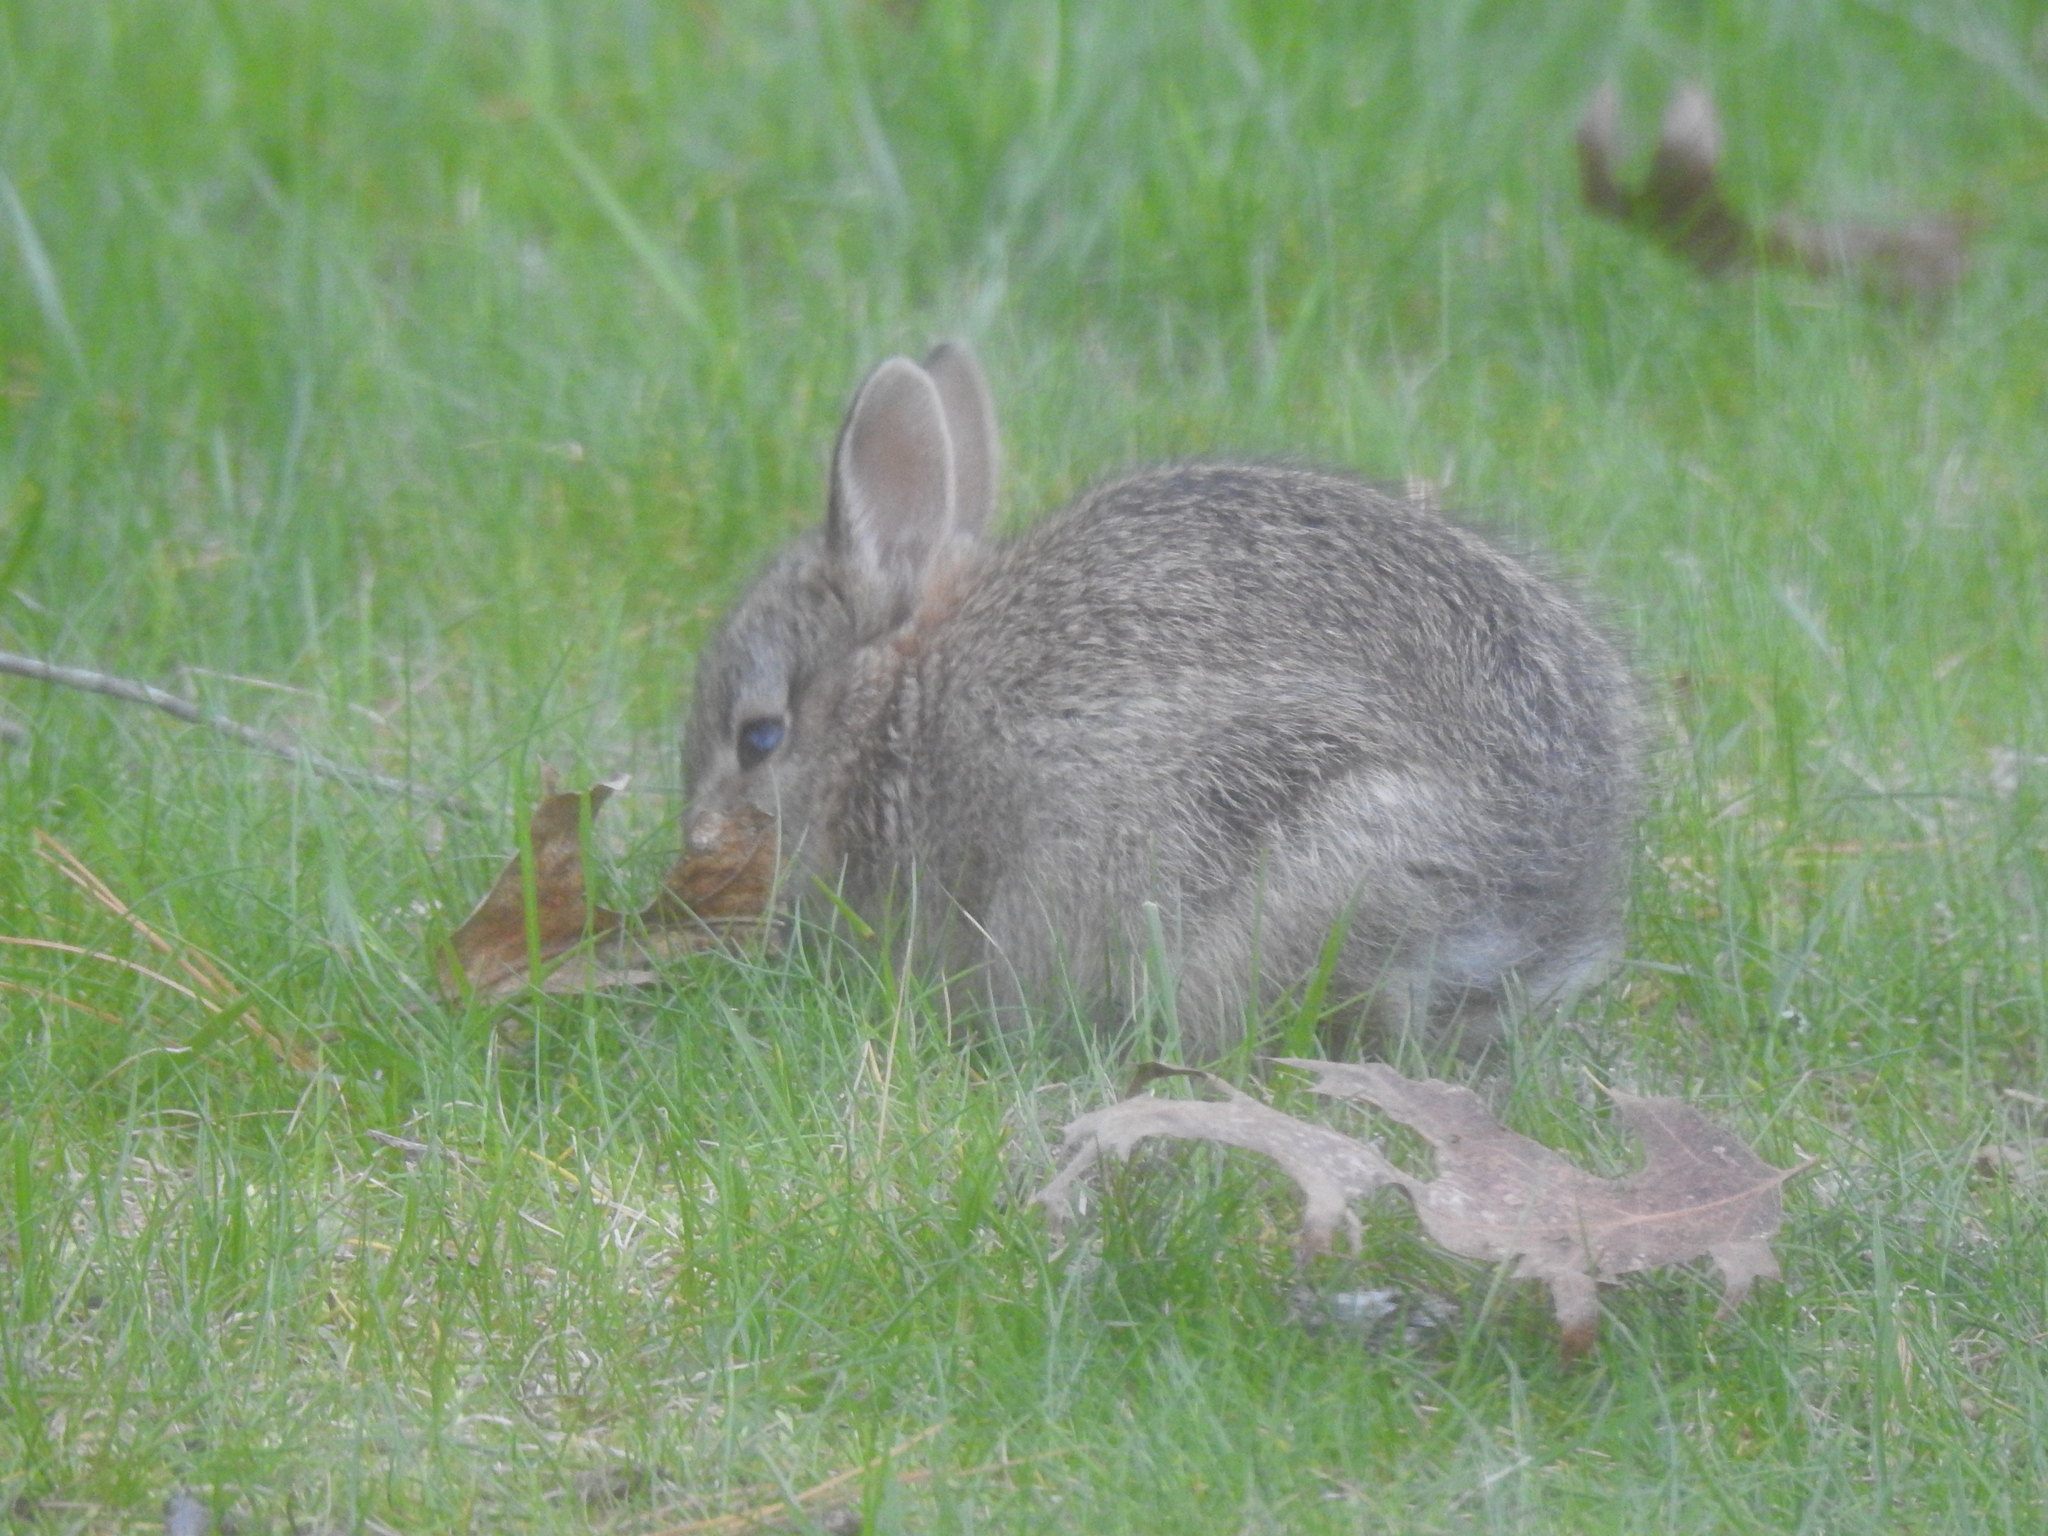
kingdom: Animalia
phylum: Chordata
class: Mammalia
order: Lagomorpha
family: Leporidae
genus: Sylvilagus
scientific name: Sylvilagus floridanus
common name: Eastern cottontail
